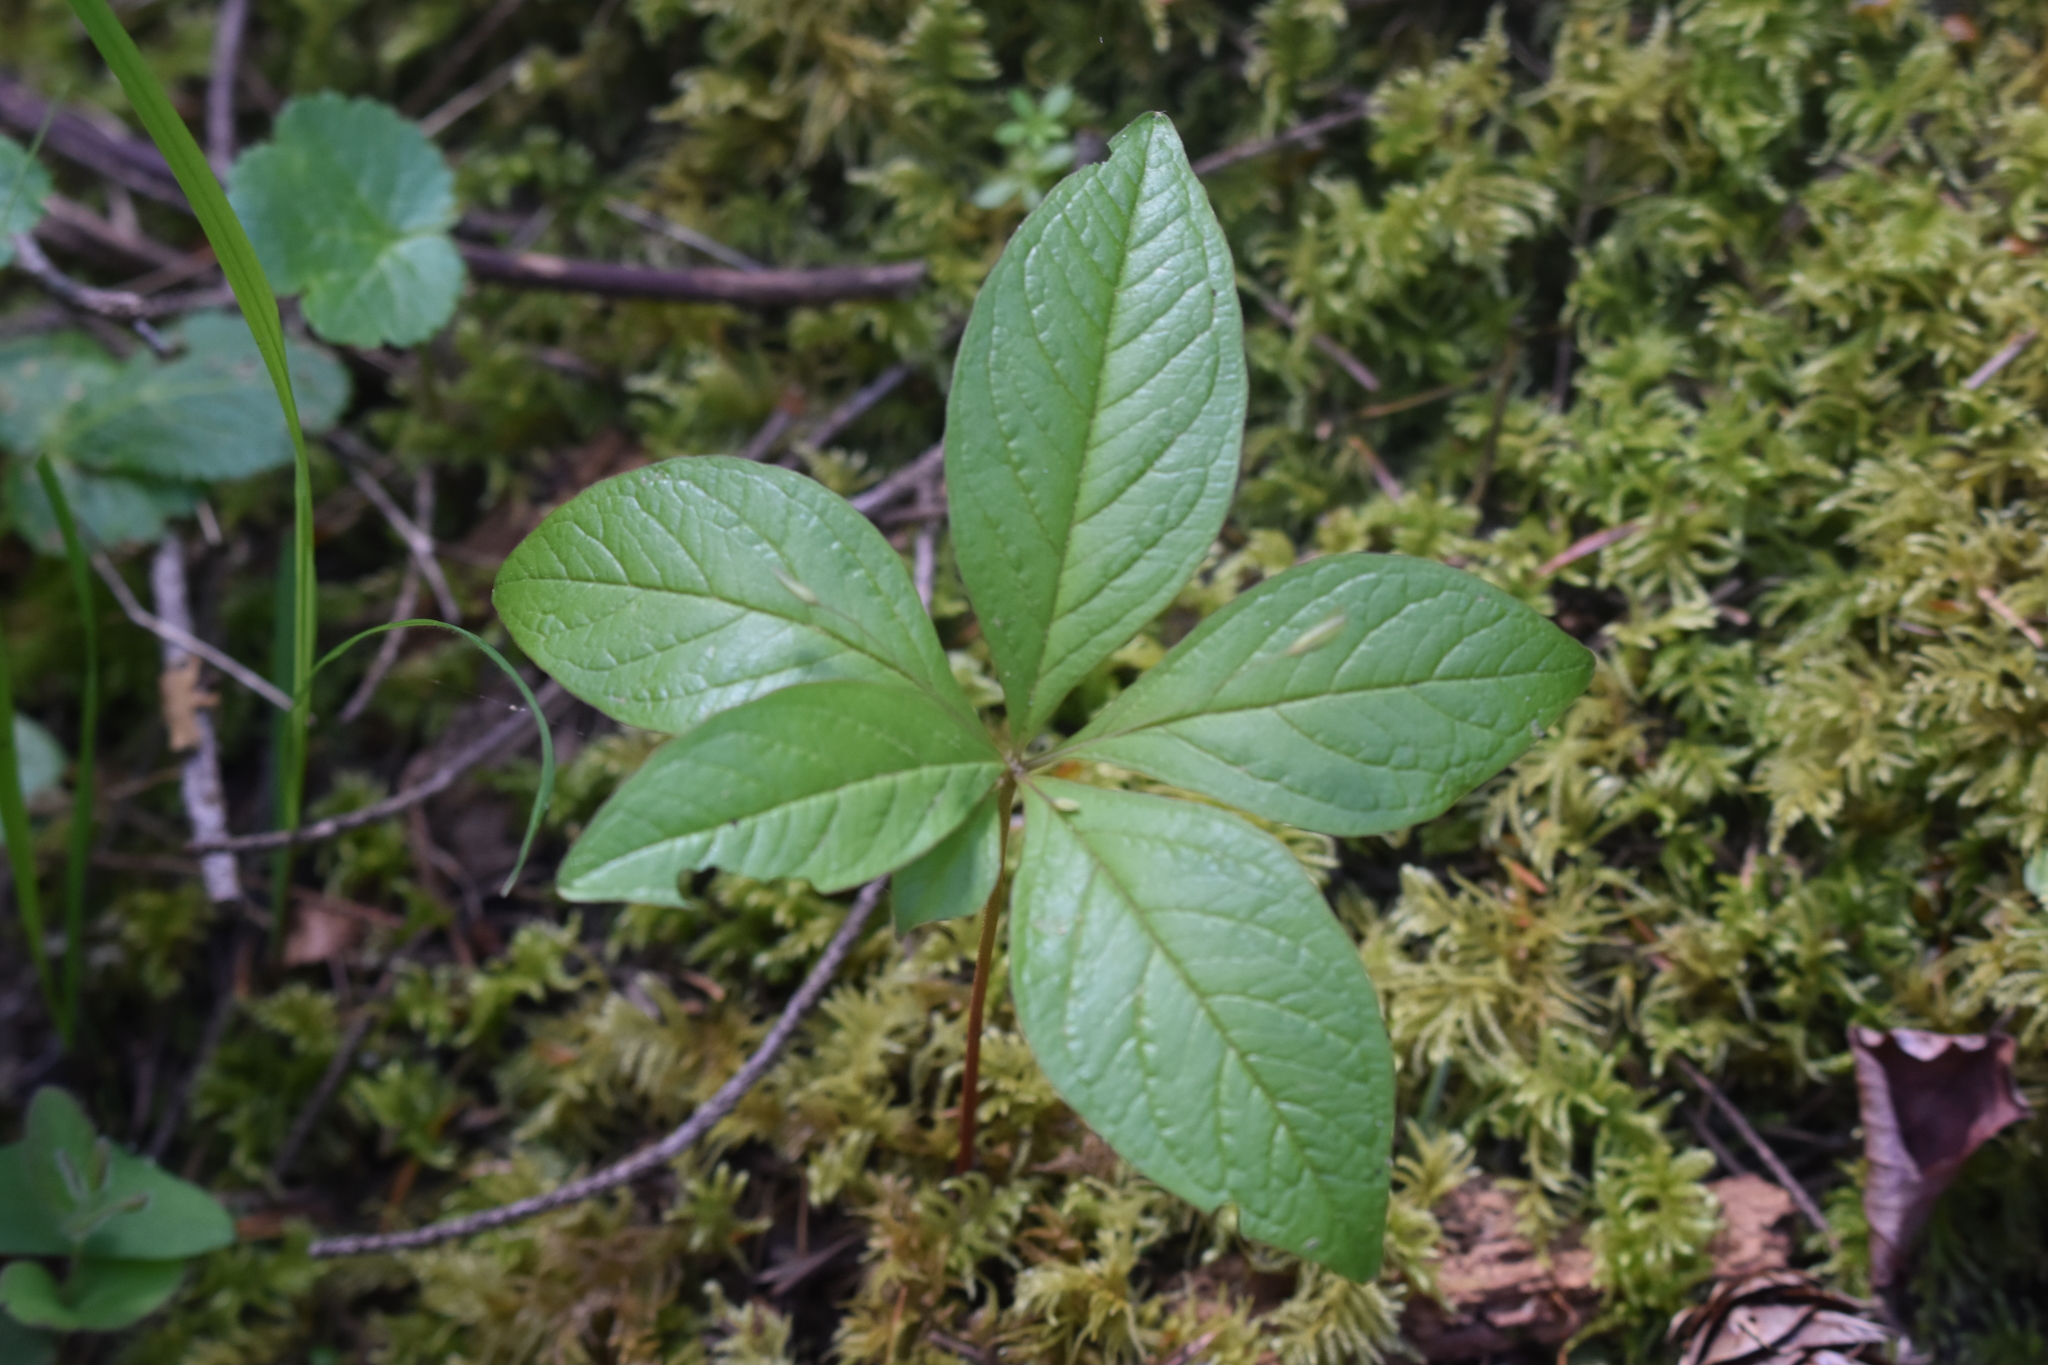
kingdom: Plantae
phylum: Tracheophyta
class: Magnoliopsida
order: Ericales
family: Primulaceae
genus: Lysimachia
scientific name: Lysimachia latifolia
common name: Pacific starflower
